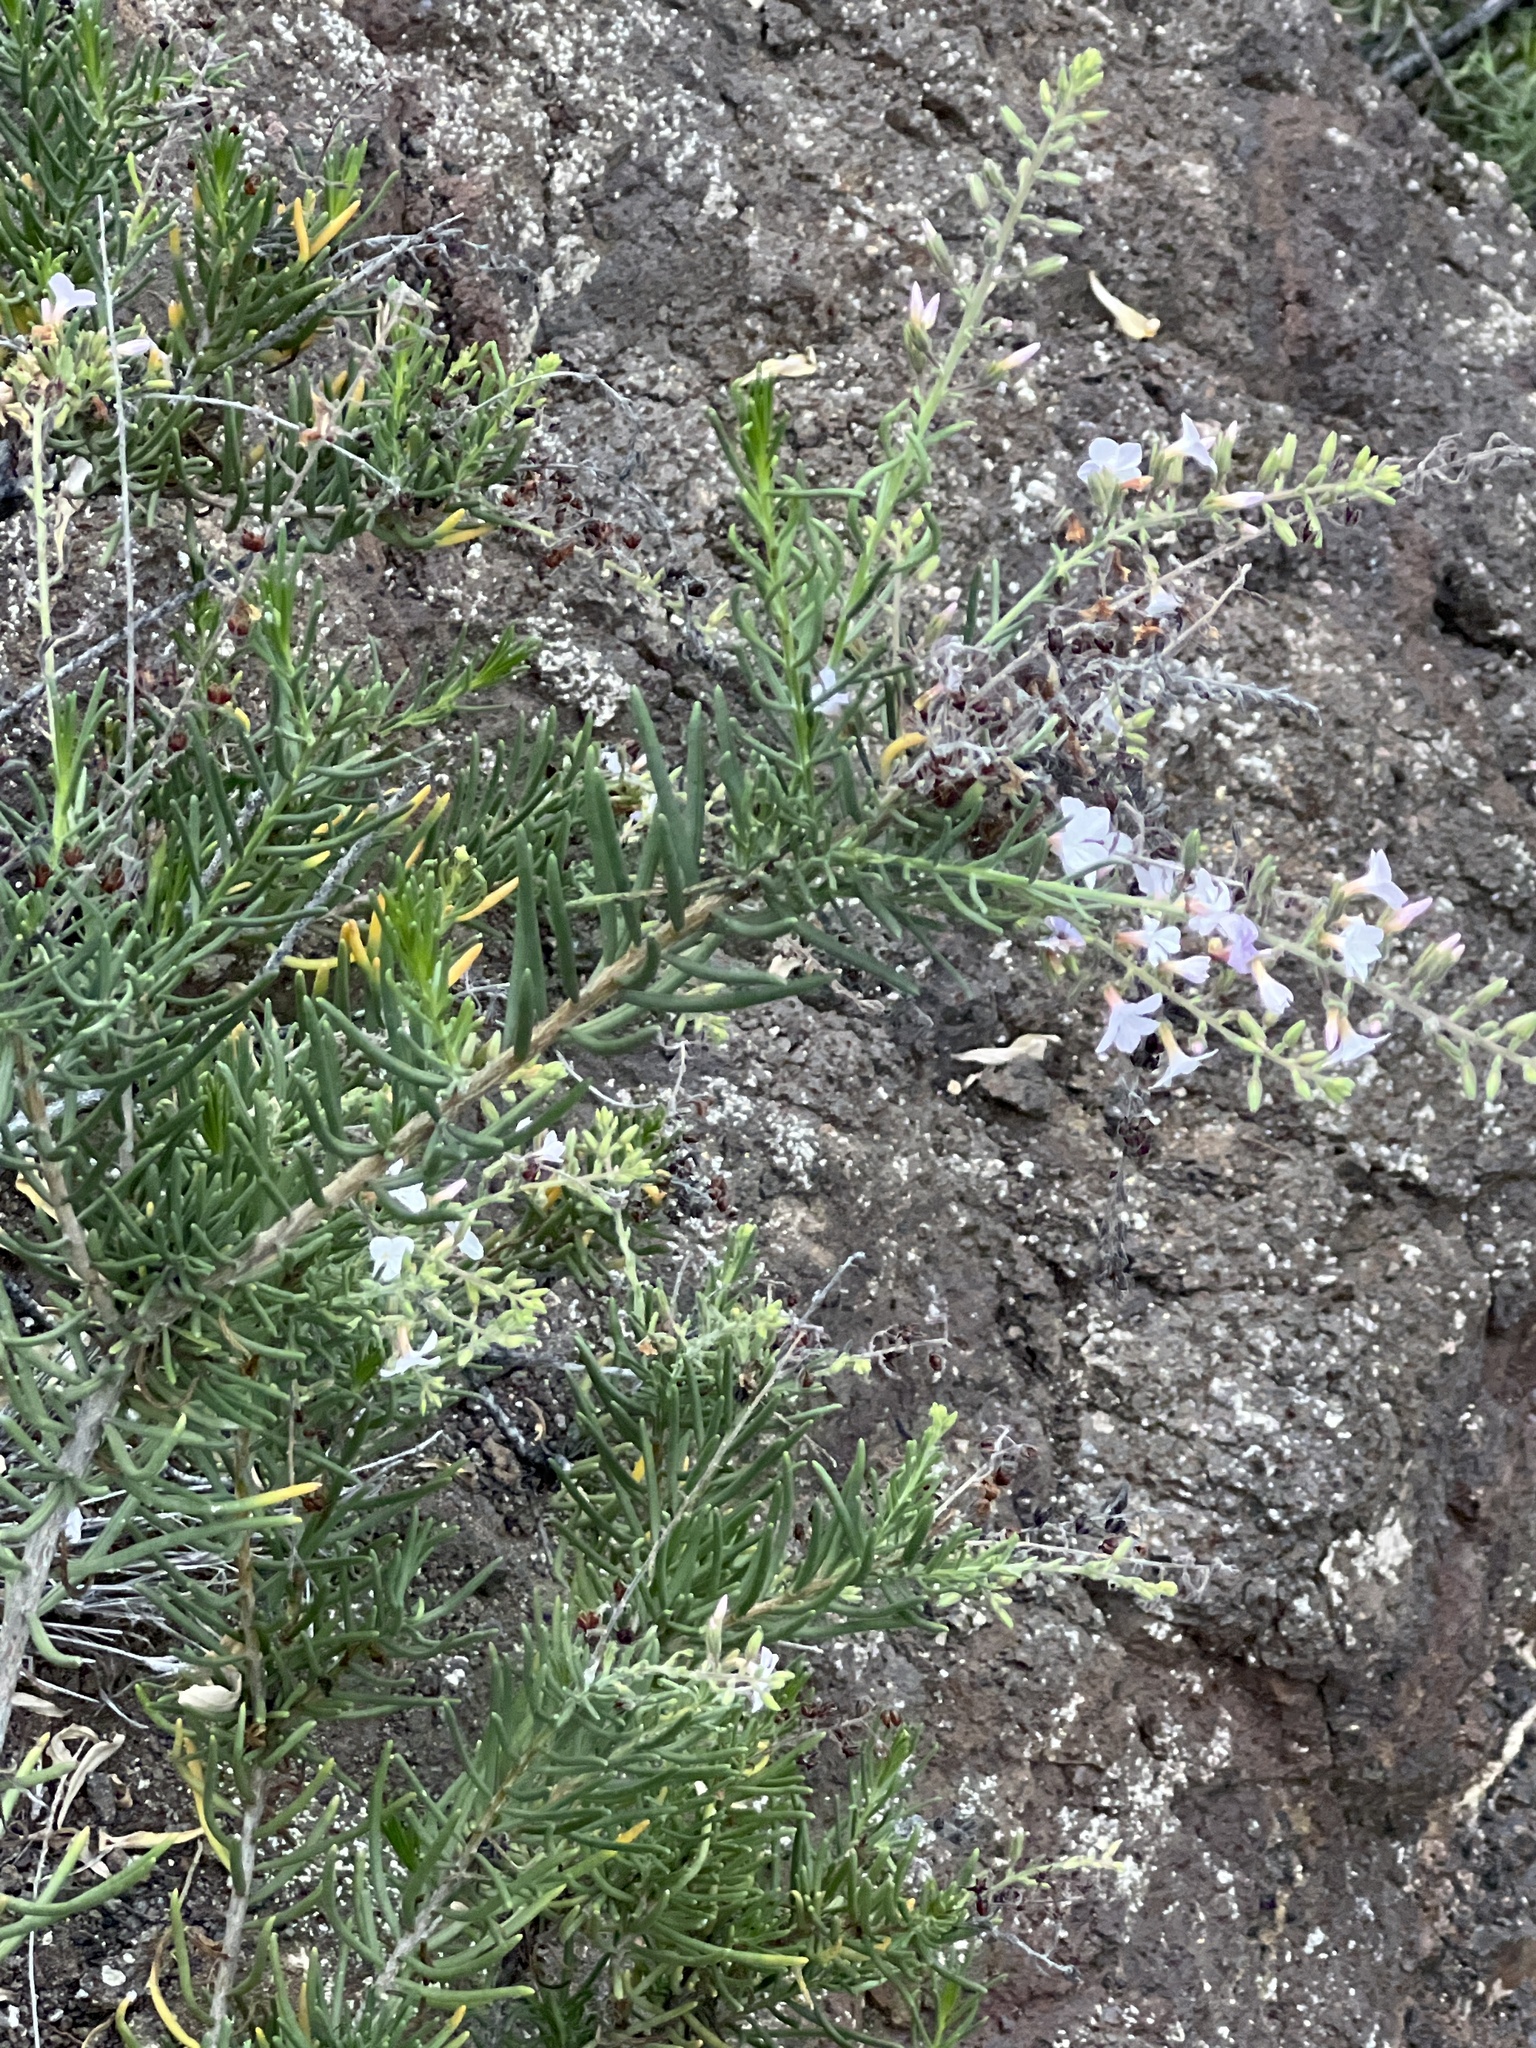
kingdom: Plantae
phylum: Tracheophyta
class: Magnoliopsida
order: Lamiales
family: Plantaginaceae
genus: Campylanthus
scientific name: Campylanthus salsoloides
